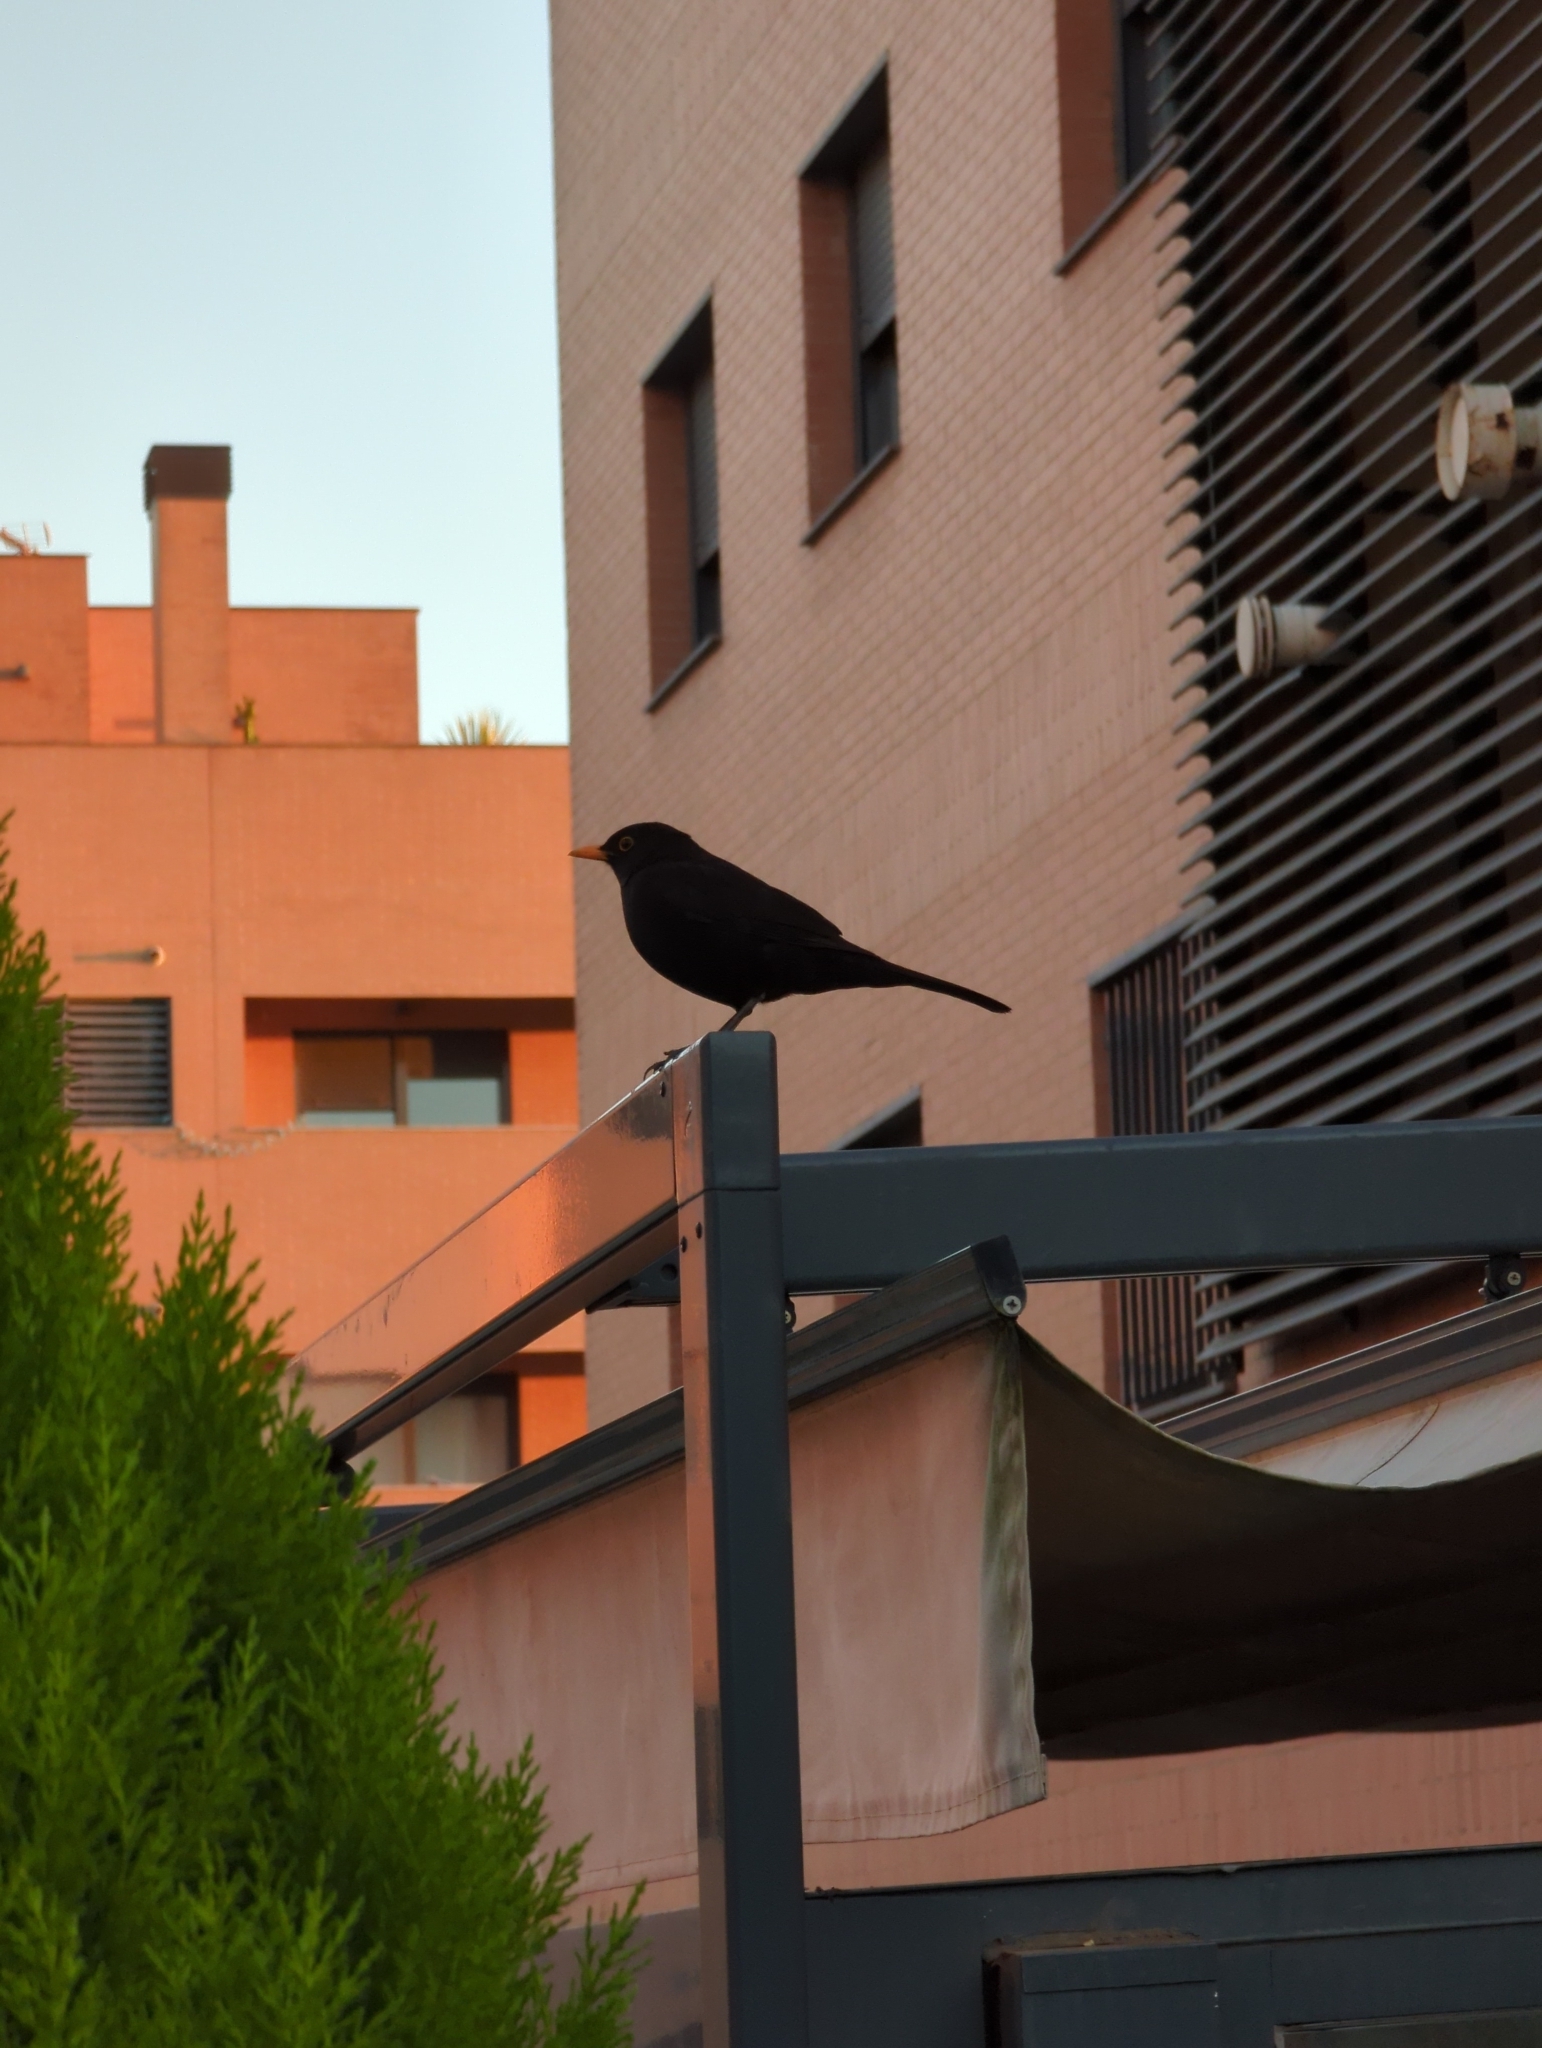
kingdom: Animalia
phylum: Chordata
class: Aves
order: Passeriformes
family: Turdidae
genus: Turdus
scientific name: Turdus merula
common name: Common blackbird
